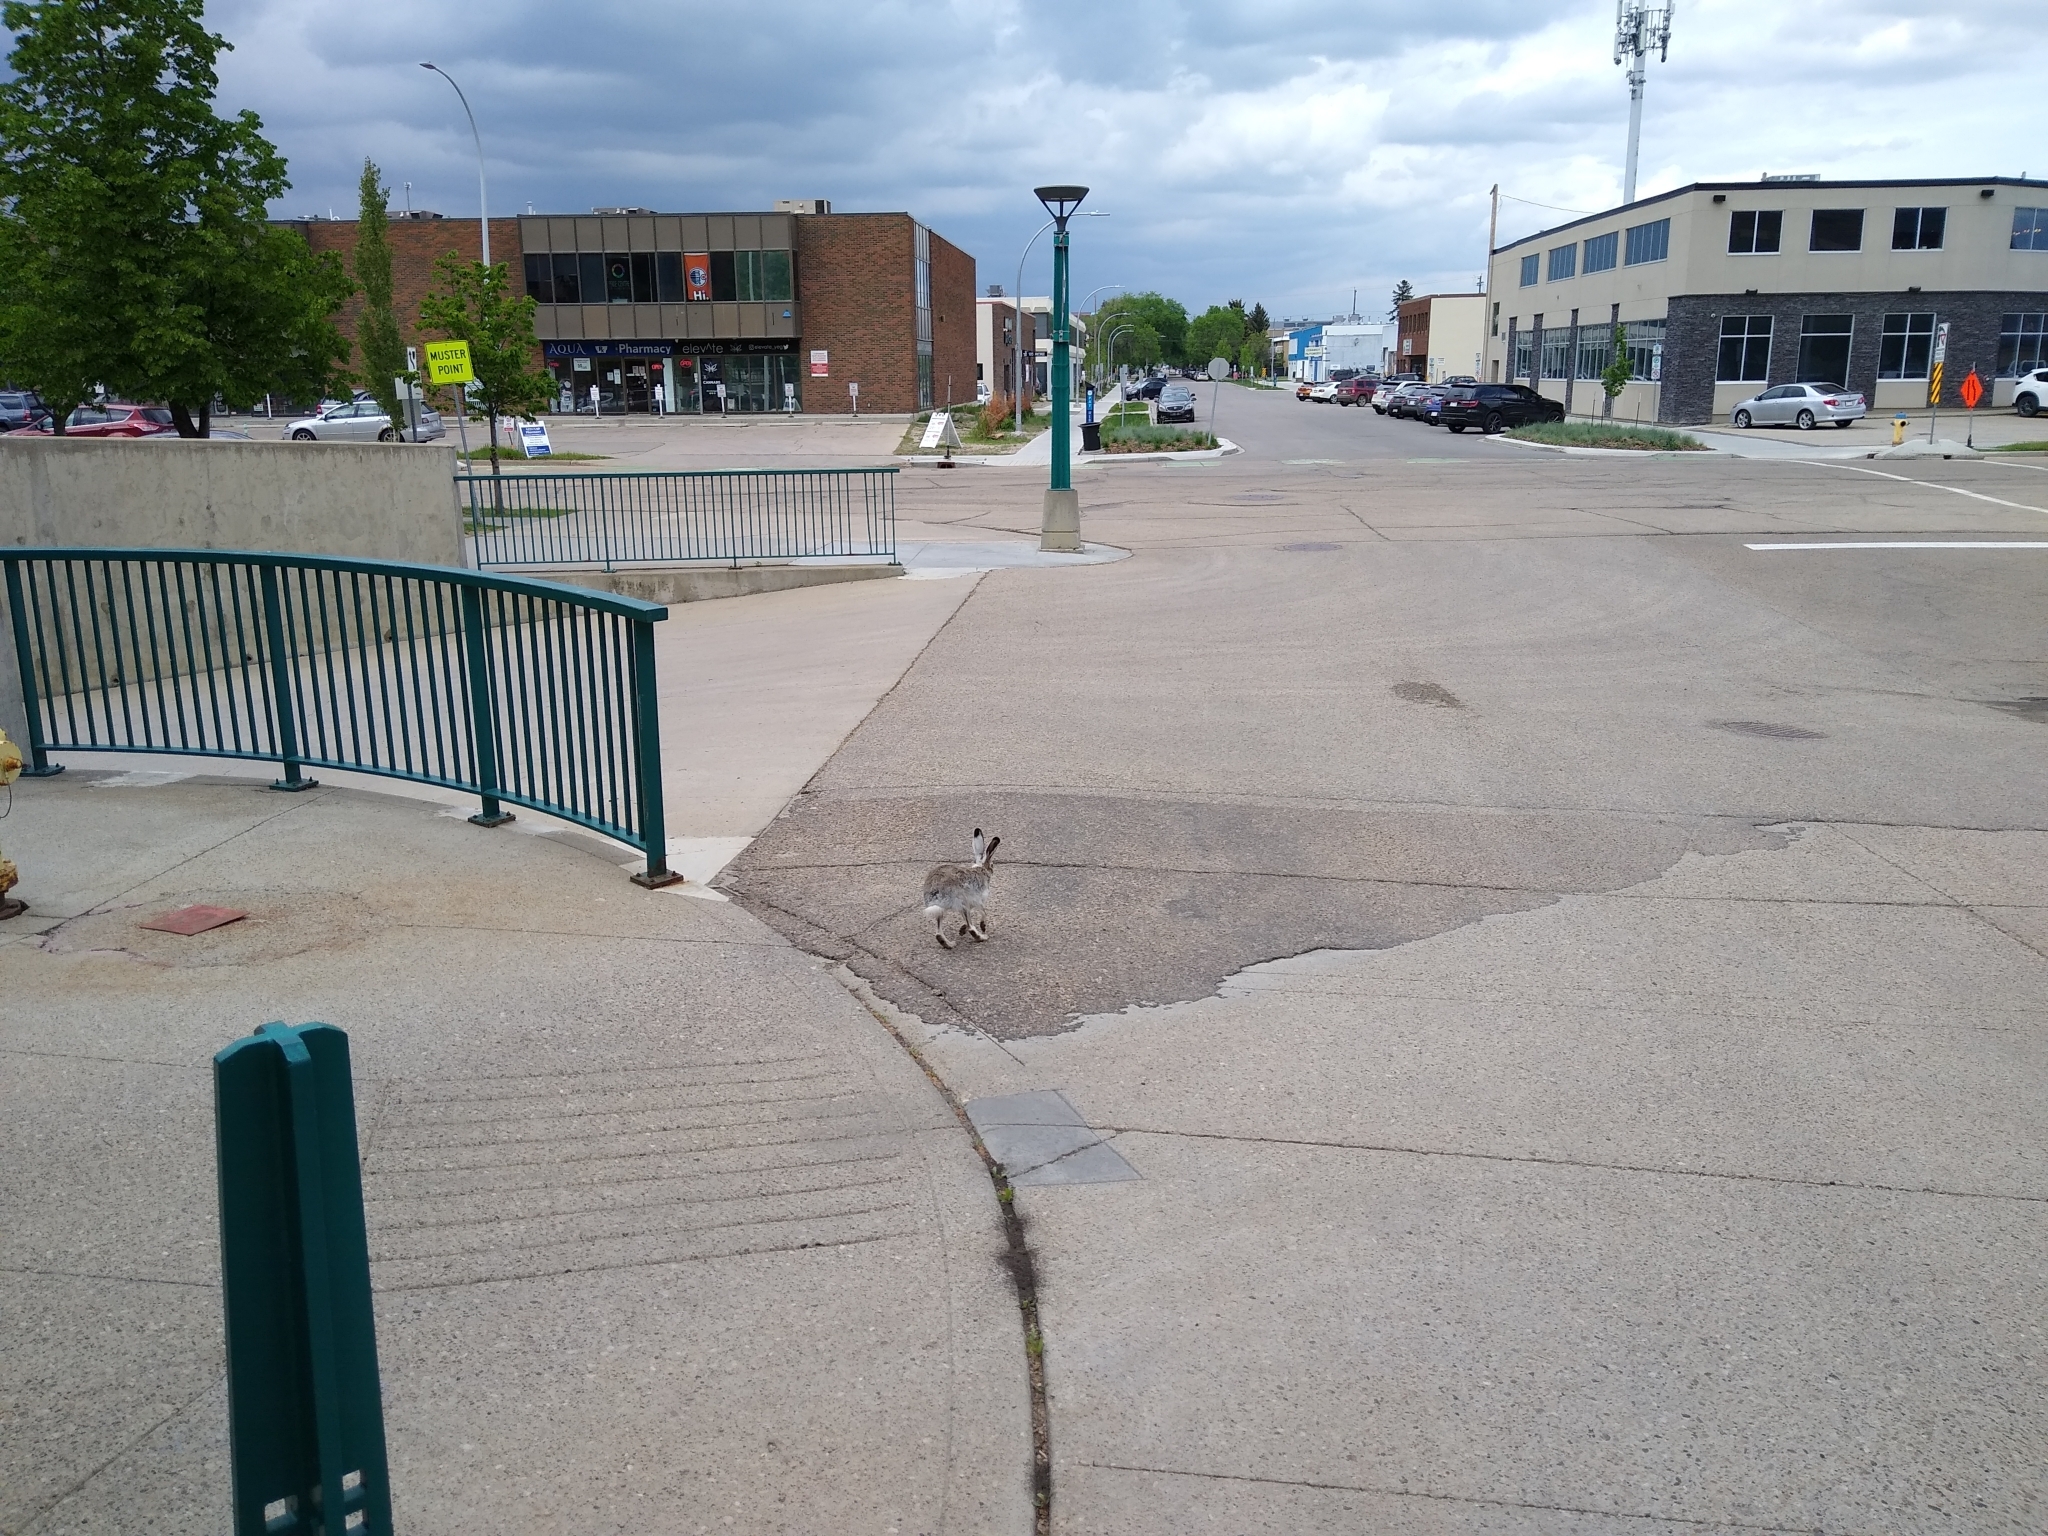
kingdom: Animalia
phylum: Chordata
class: Mammalia
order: Lagomorpha
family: Leporidae
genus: Lepus
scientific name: Lepus townsendii
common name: White-tailed jackrabbit
